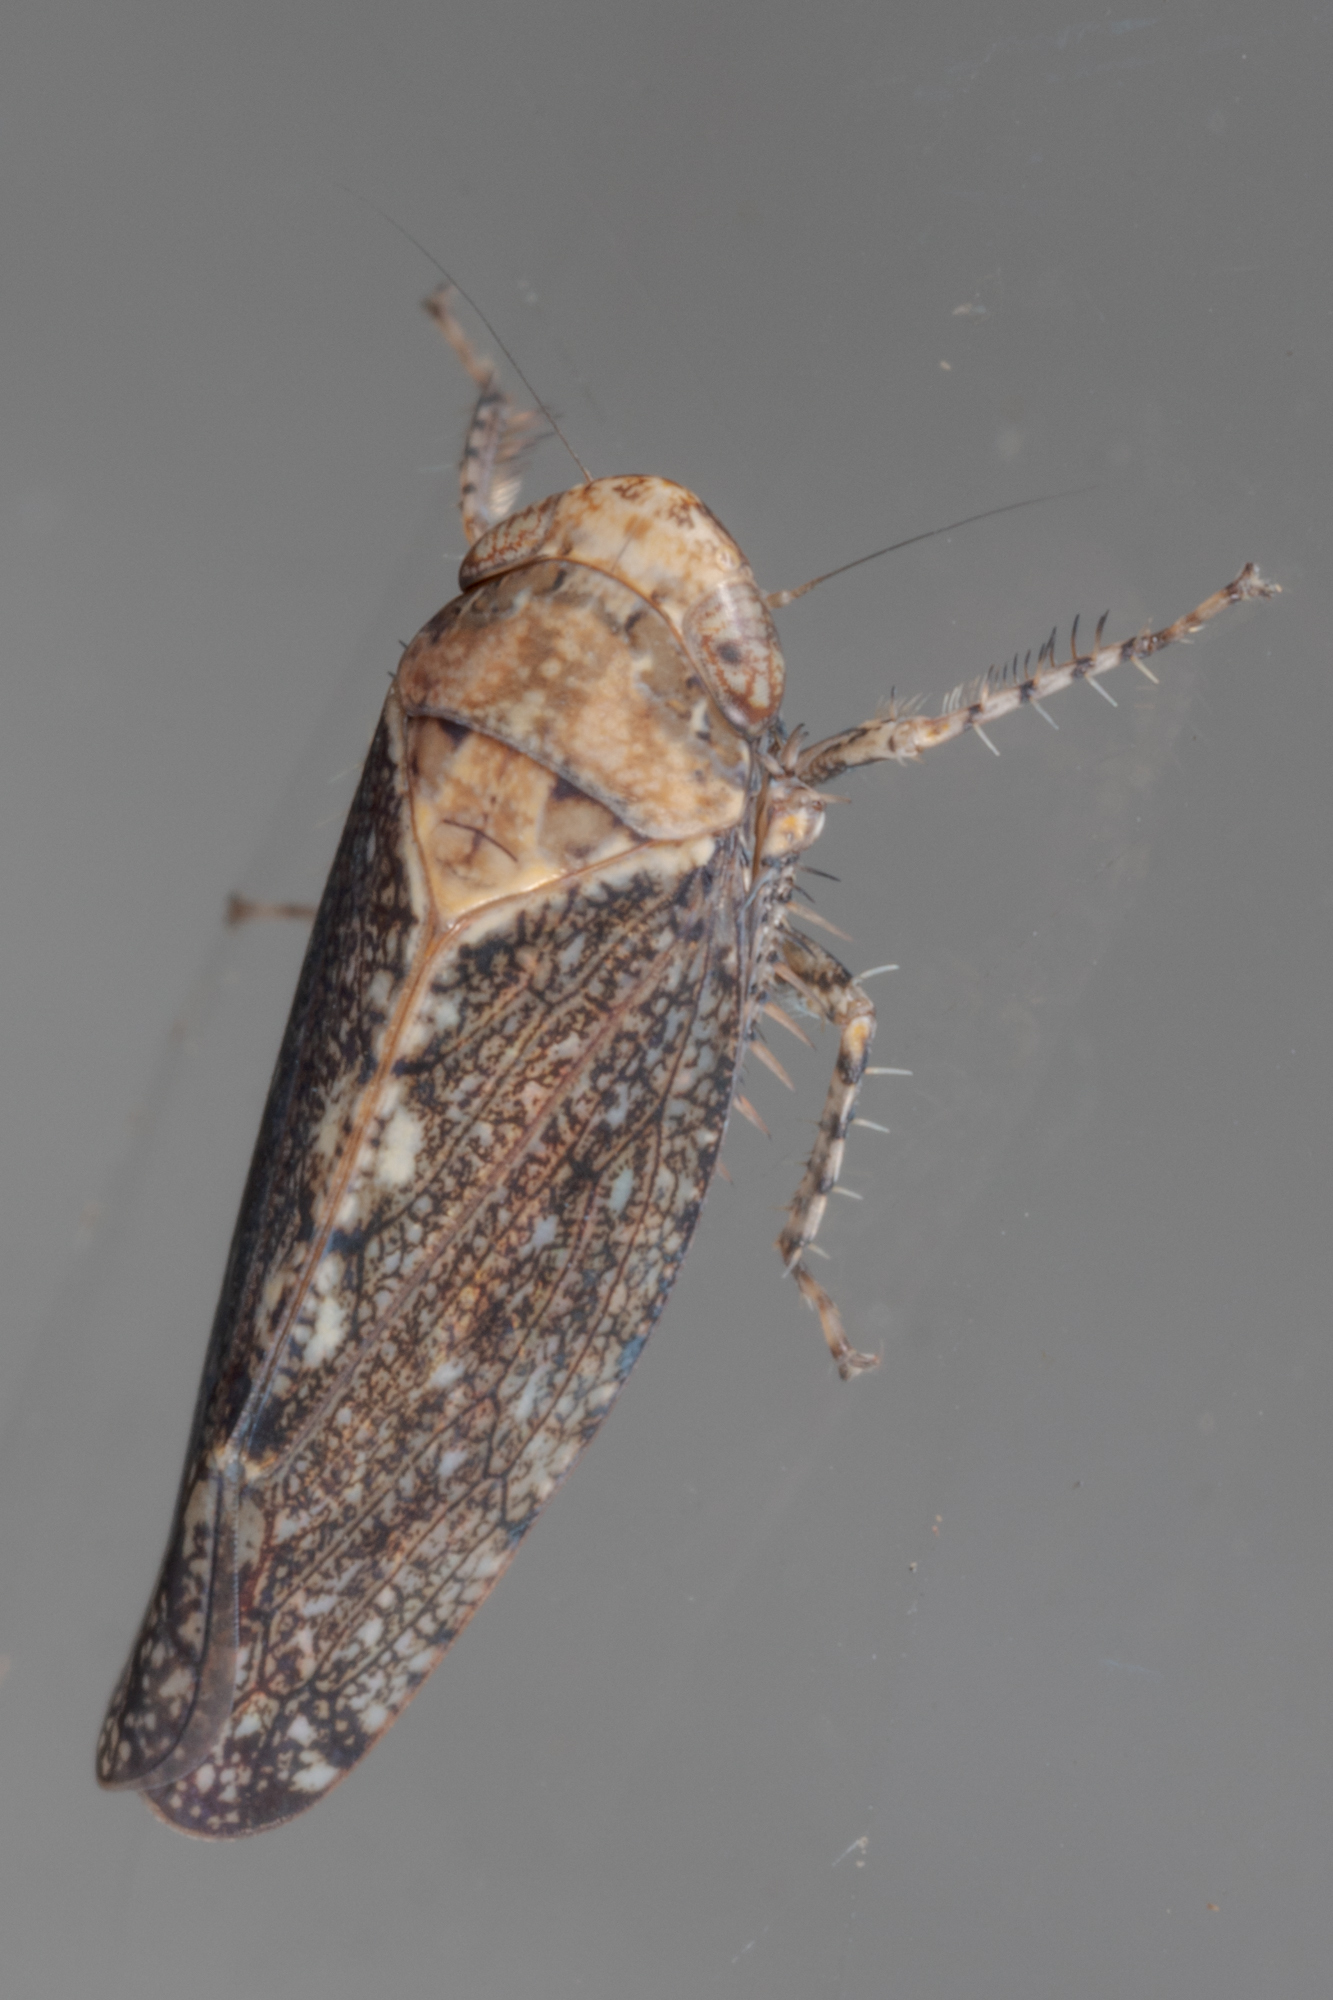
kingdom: Animalia
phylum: Arthropoda
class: Insecta
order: Hemiptera
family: Cicadellidae
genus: Excultanus
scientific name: Excultanus excultus
